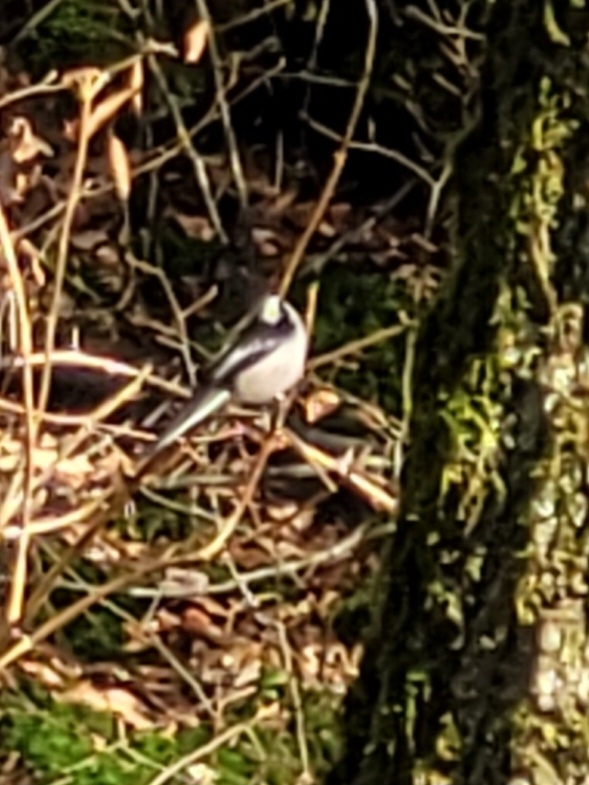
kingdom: Animalia
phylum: Chordata
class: Aves
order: Passeriformes
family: Aegithalidae
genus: Aegithalos
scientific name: Aegithalos caudatus
